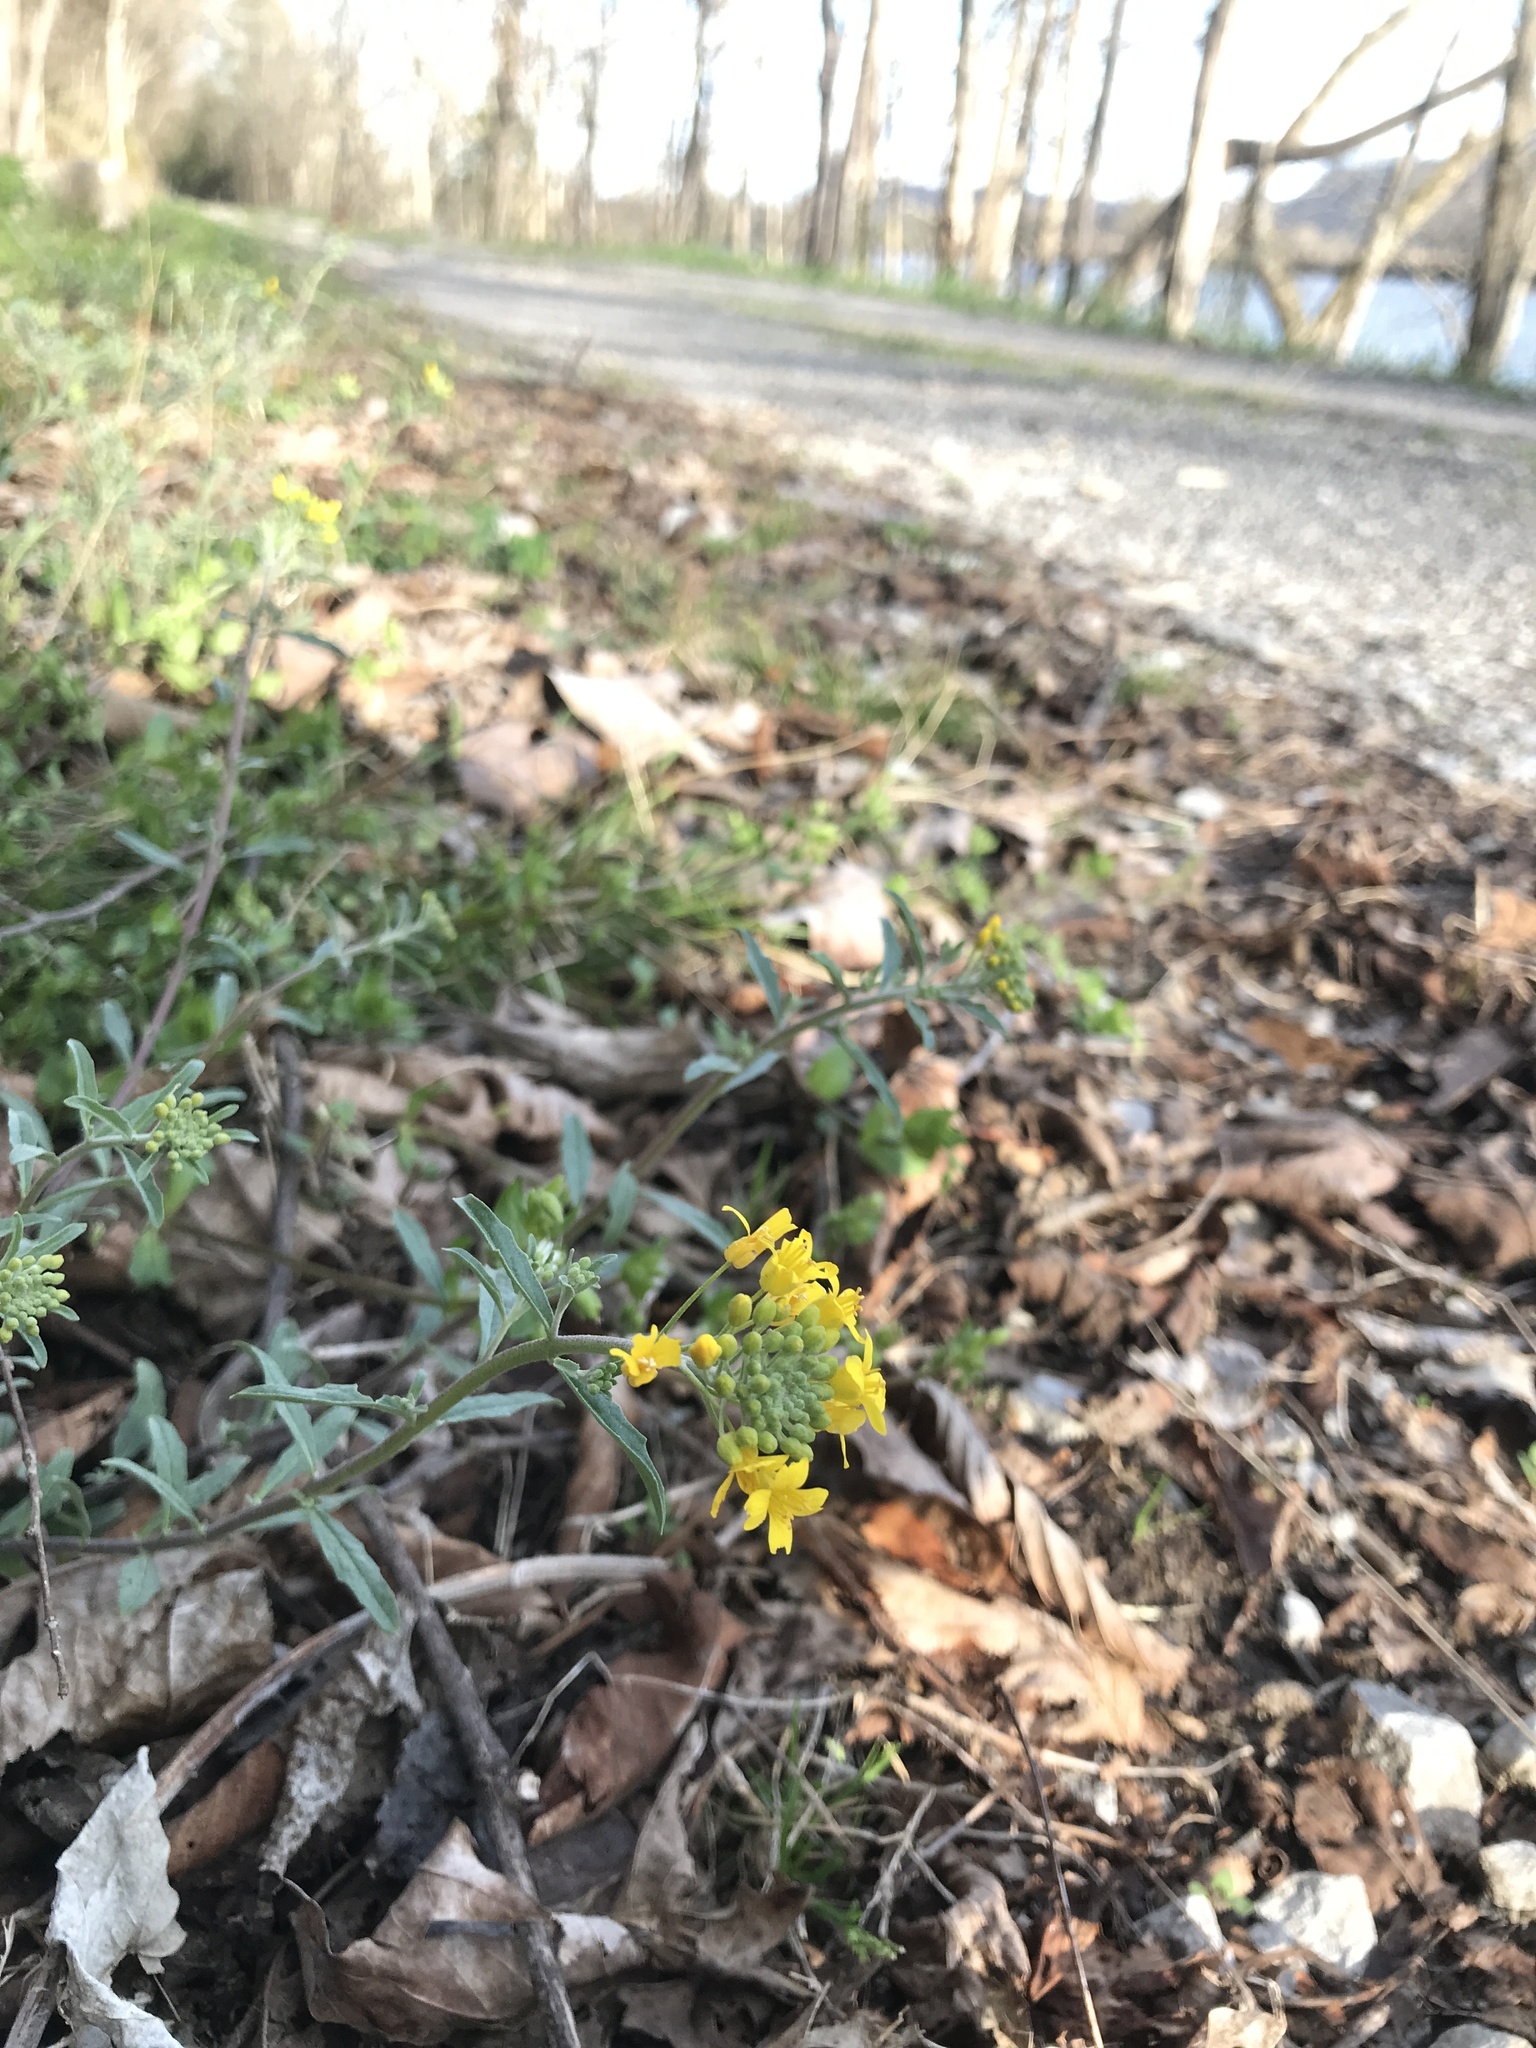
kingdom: Plantae
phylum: Tracheophyta
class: Magnoliopsida
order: Brassicales
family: Brassicaceae
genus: Physaria
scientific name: Physaria globosa
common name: Globe bladderpod
